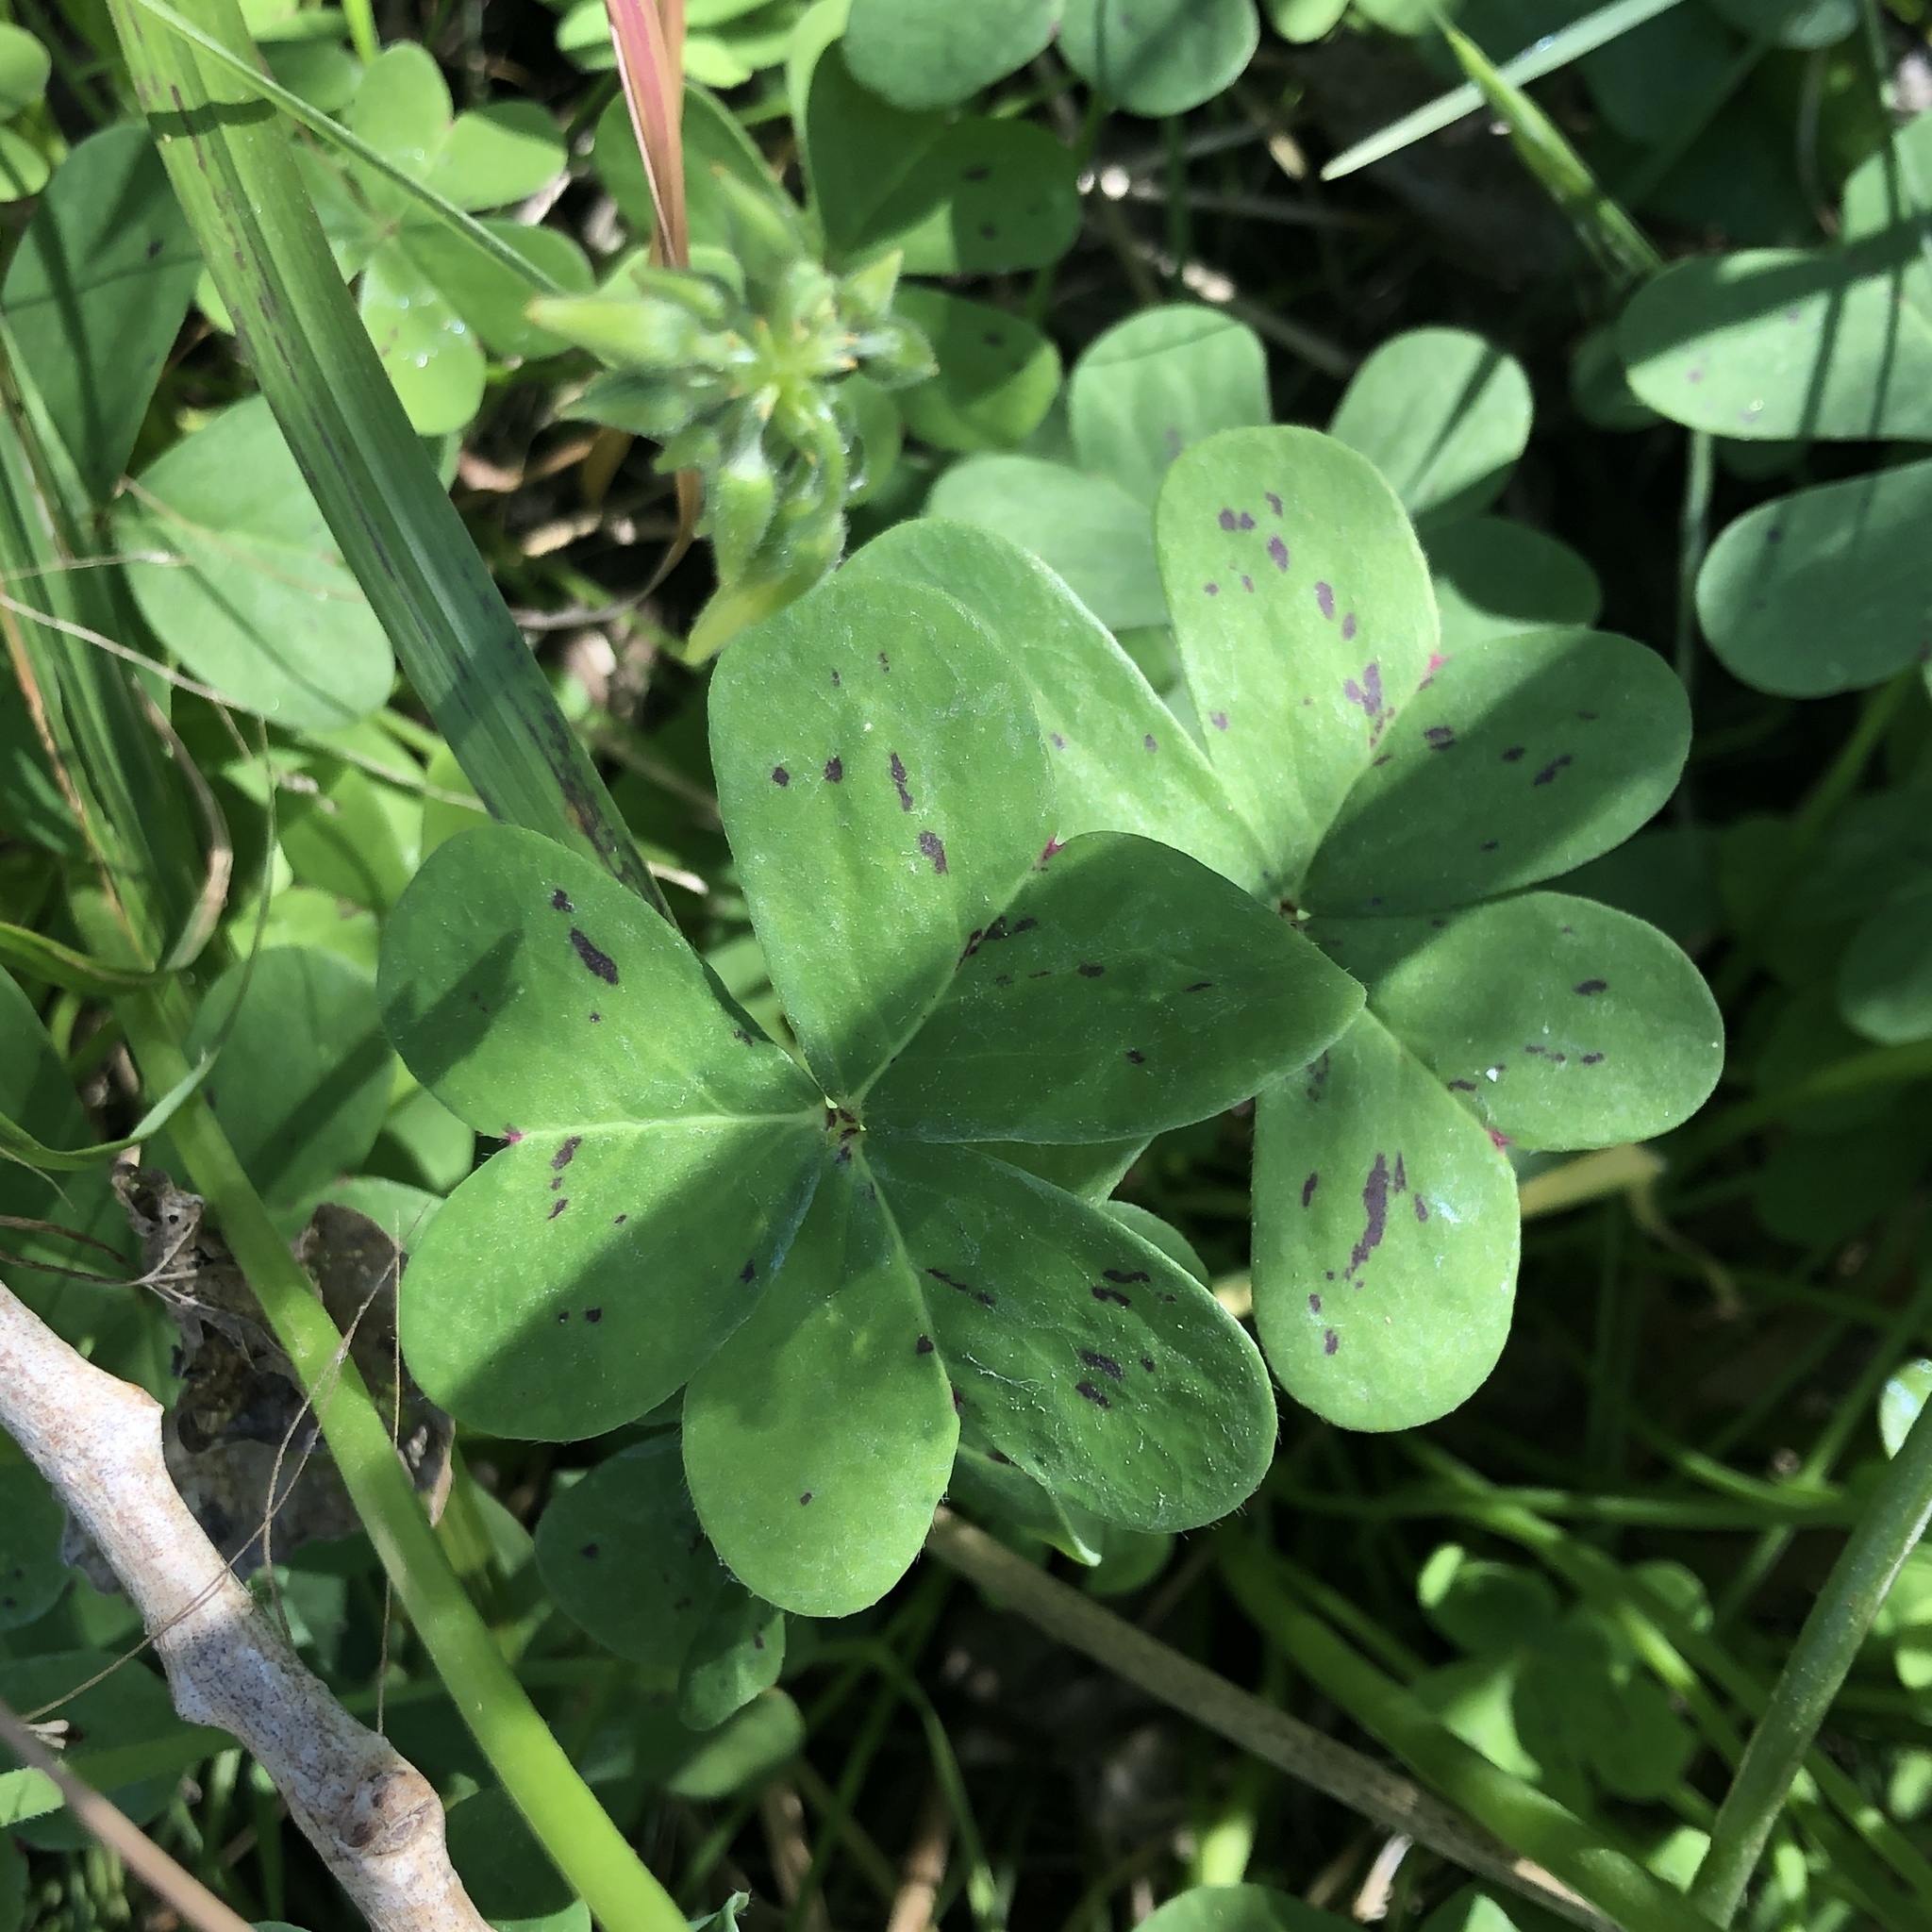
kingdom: Plantae
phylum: Tracheophyta
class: Magnoliopsida
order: Oxalidales
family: Oxalidaceae
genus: Oxalis
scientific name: Oxalis pes-caprae
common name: Bermuda-buttercup
